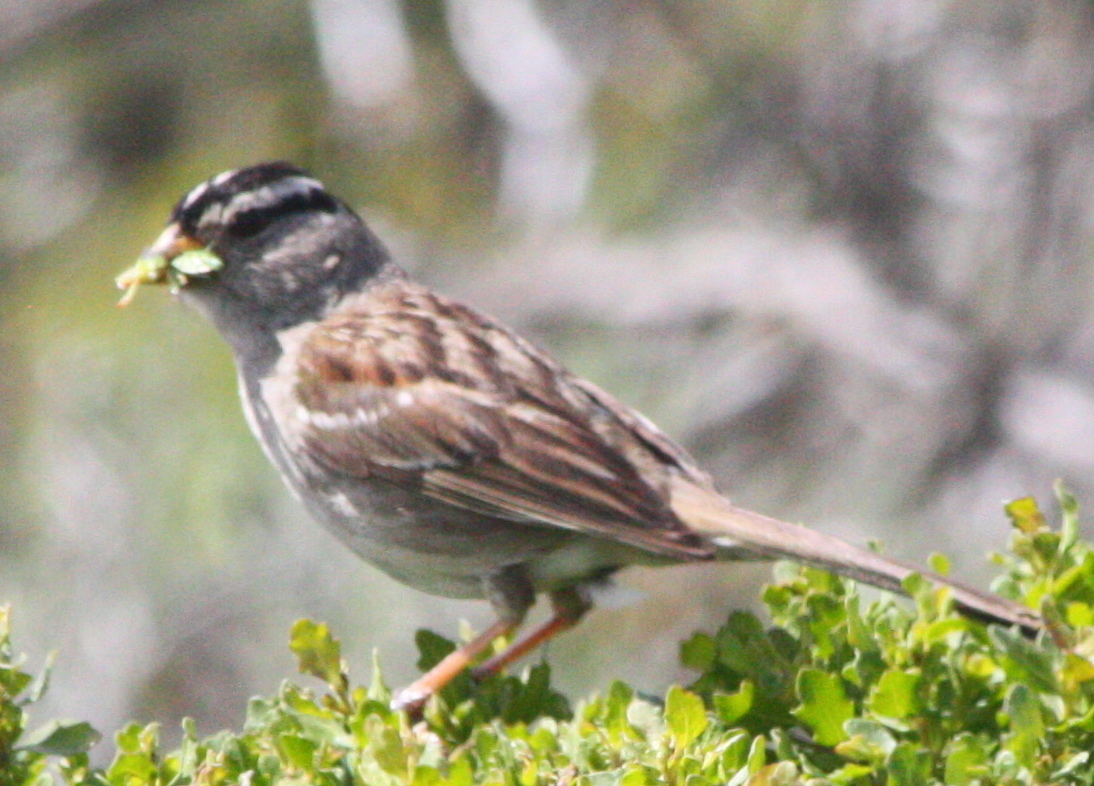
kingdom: Animalia
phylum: Chordata
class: Aves
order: Passeriformes
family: Passerellidae
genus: Zonotrichia
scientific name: Zonotrichia leucophrys
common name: White-crowned sparrow
